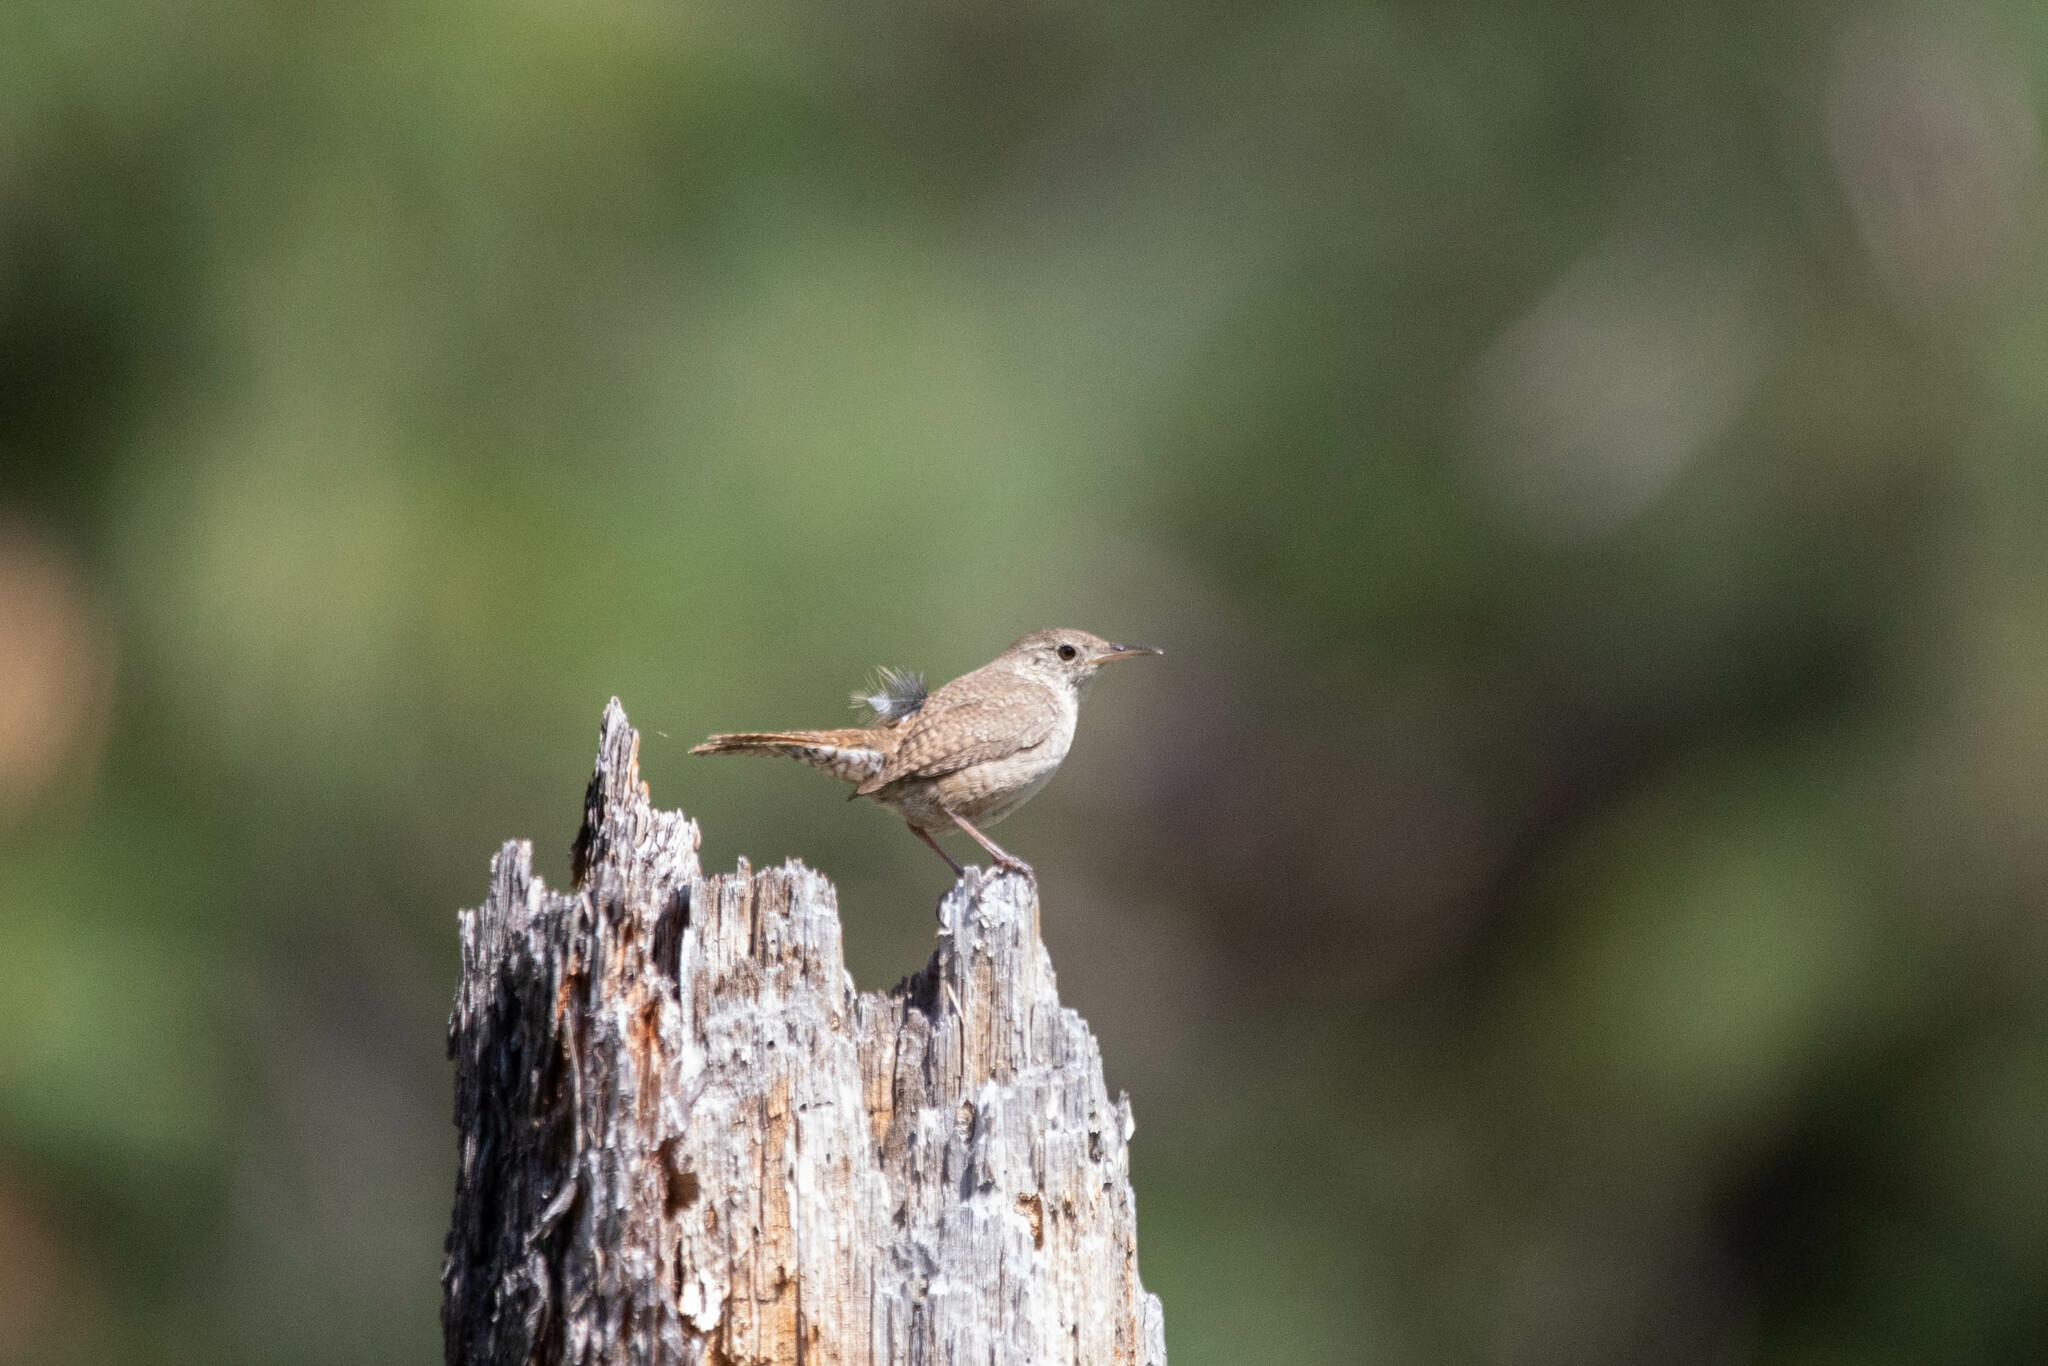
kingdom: Animalia
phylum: Chordata
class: Aves
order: Passeriformes
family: Troglodytidae
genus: Troglodytes
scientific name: Troglodytes aedon
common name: House wren
